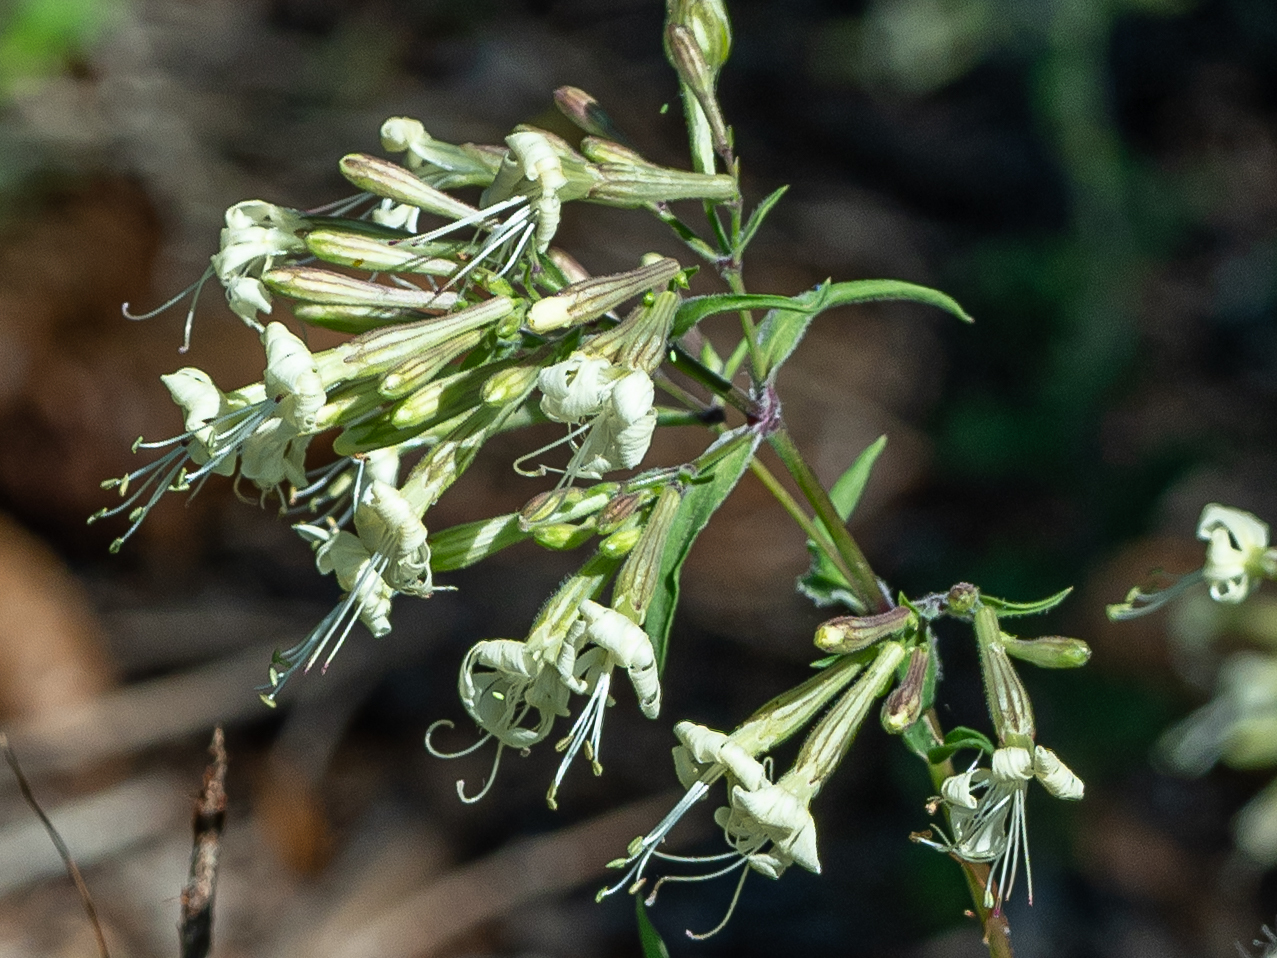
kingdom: Plantae
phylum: Tracheophyta
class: Magnoliopsida
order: Caryophyllales
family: Caryophyllaceae
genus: Silene
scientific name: Silene nemoralis
